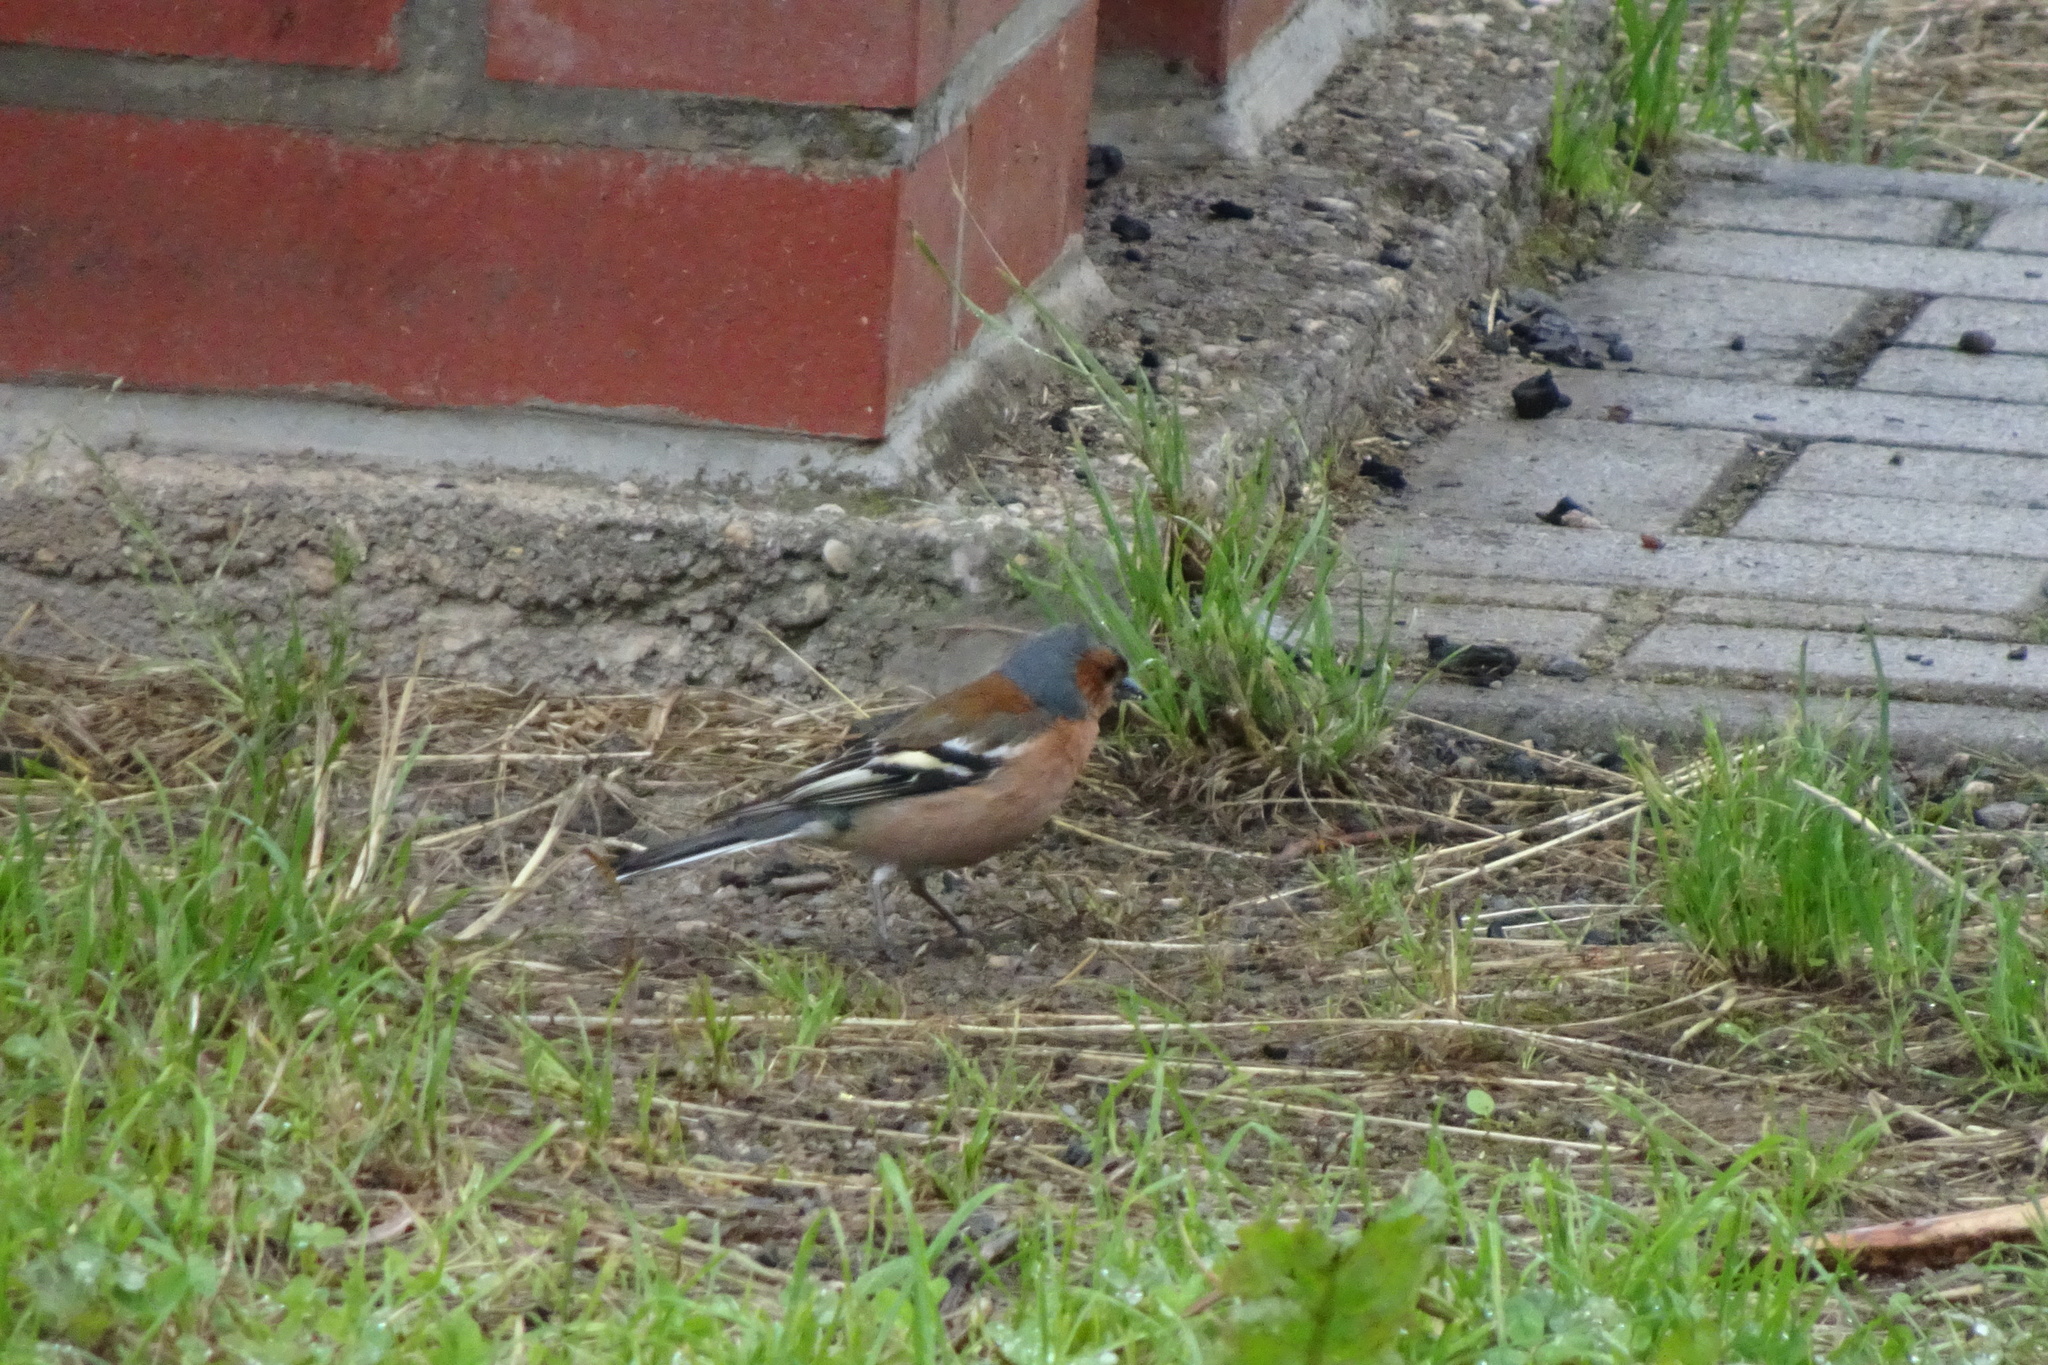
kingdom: Animalia
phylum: Chordata
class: Aves
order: Passeriformes
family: Fringillidae
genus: Fringilla
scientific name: Fringilla coelebs
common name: Common chaffinch
